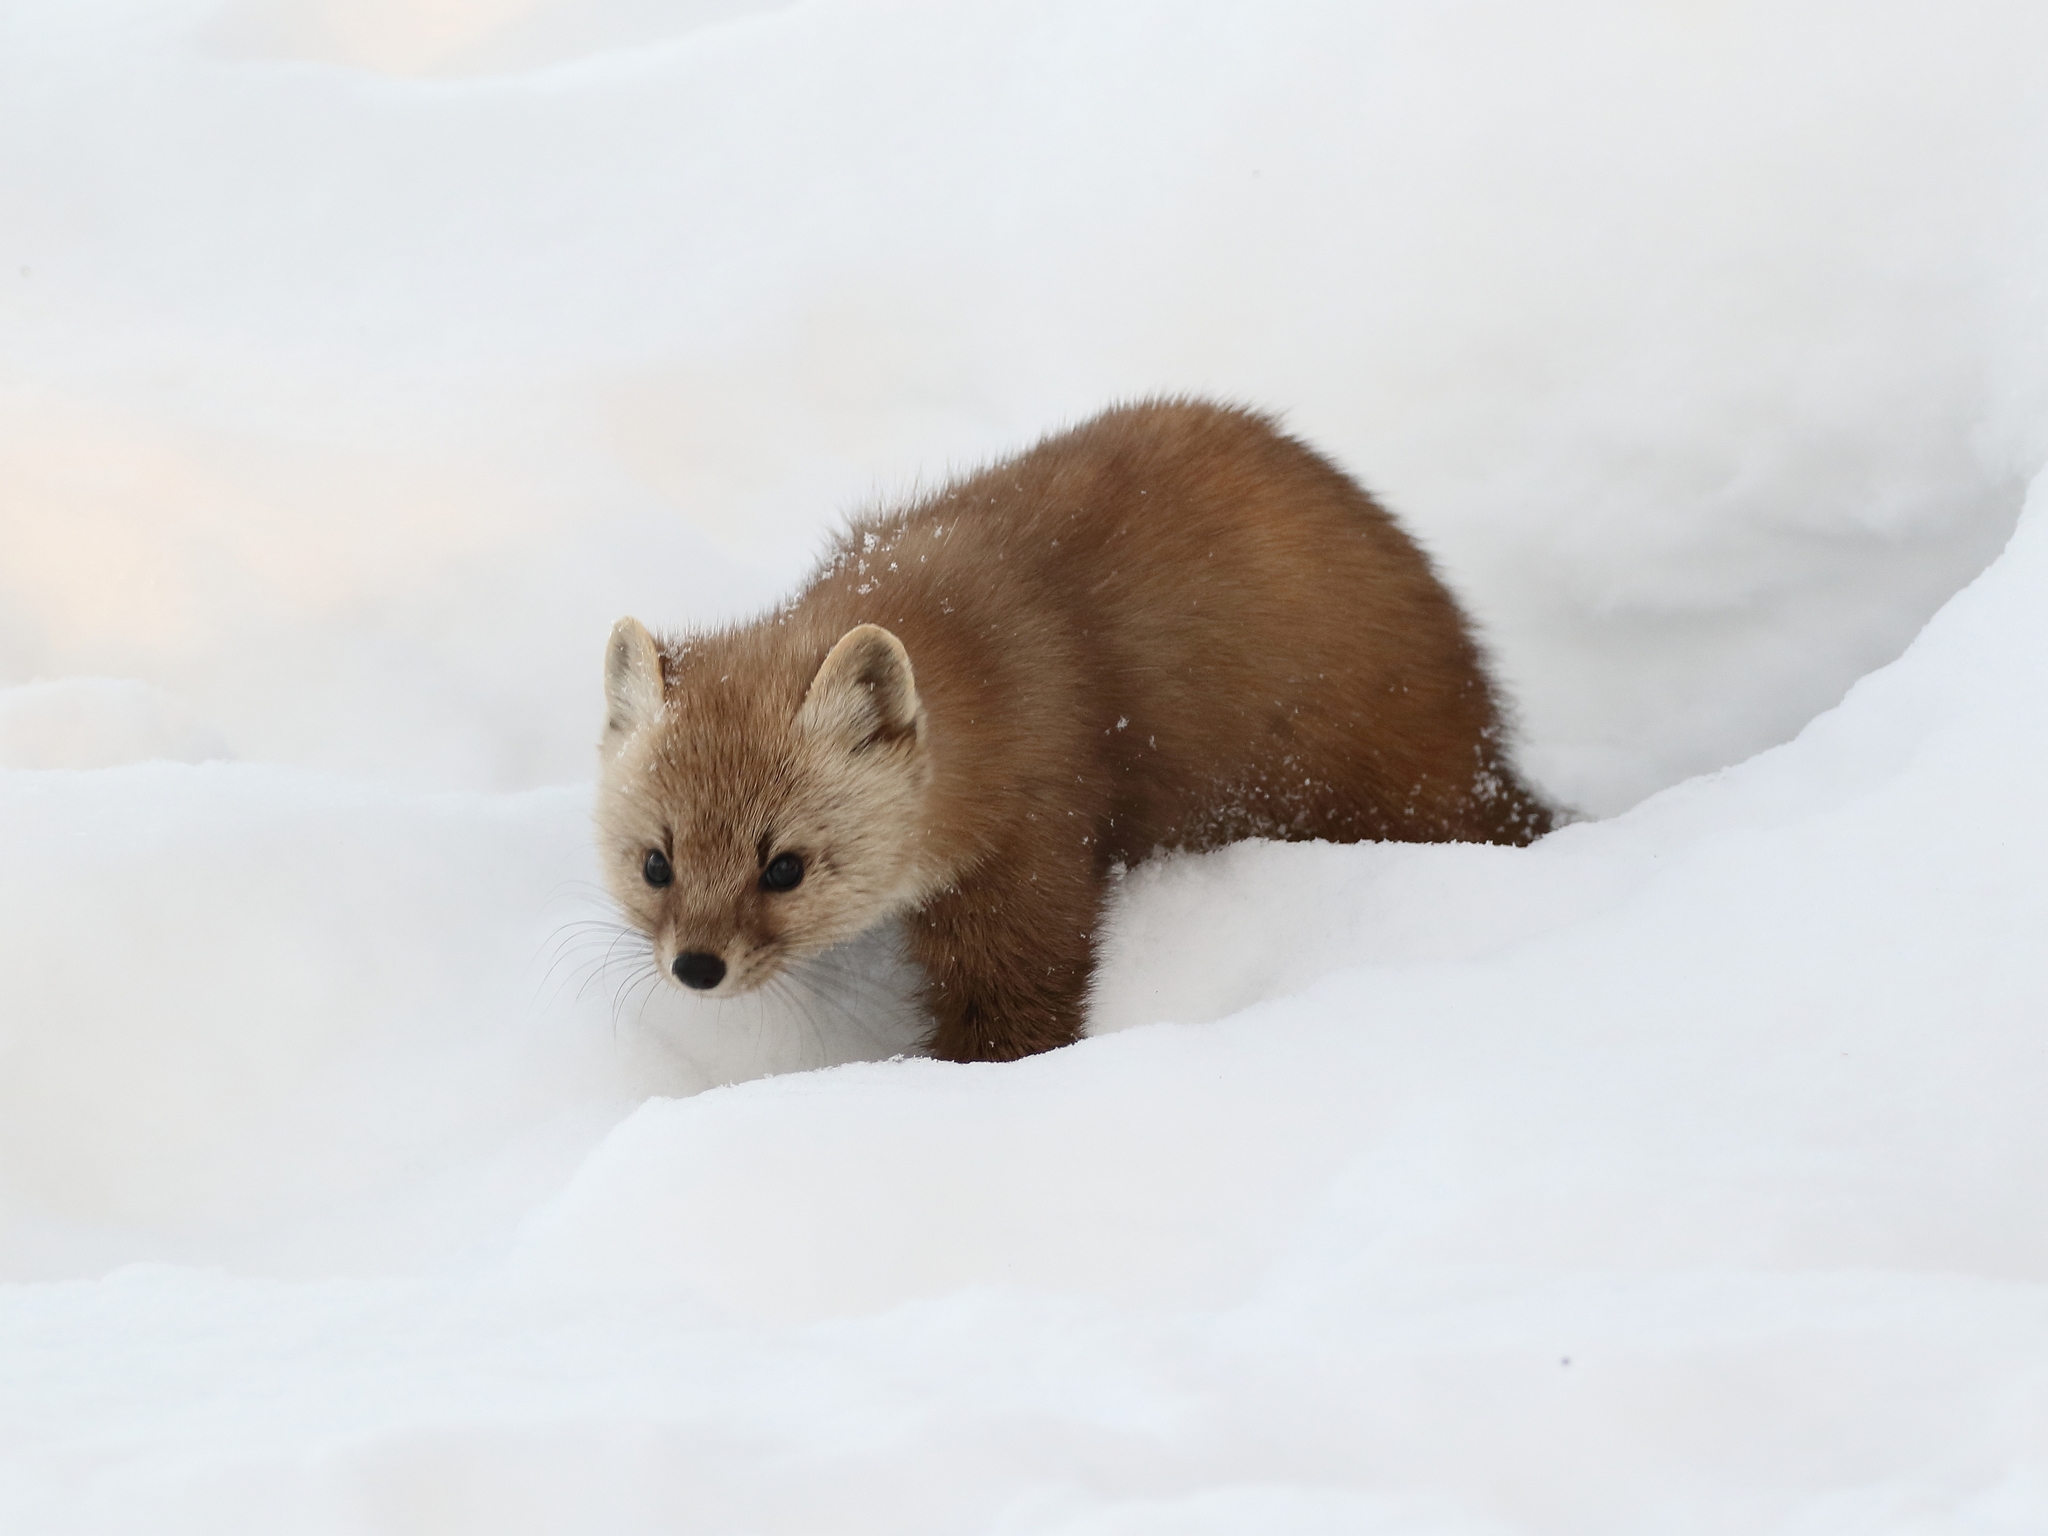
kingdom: Animalia
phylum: Chordata
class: Mammalia
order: Carnivora
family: Mustelidae
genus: Martes
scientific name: Martes americana
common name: American marten
